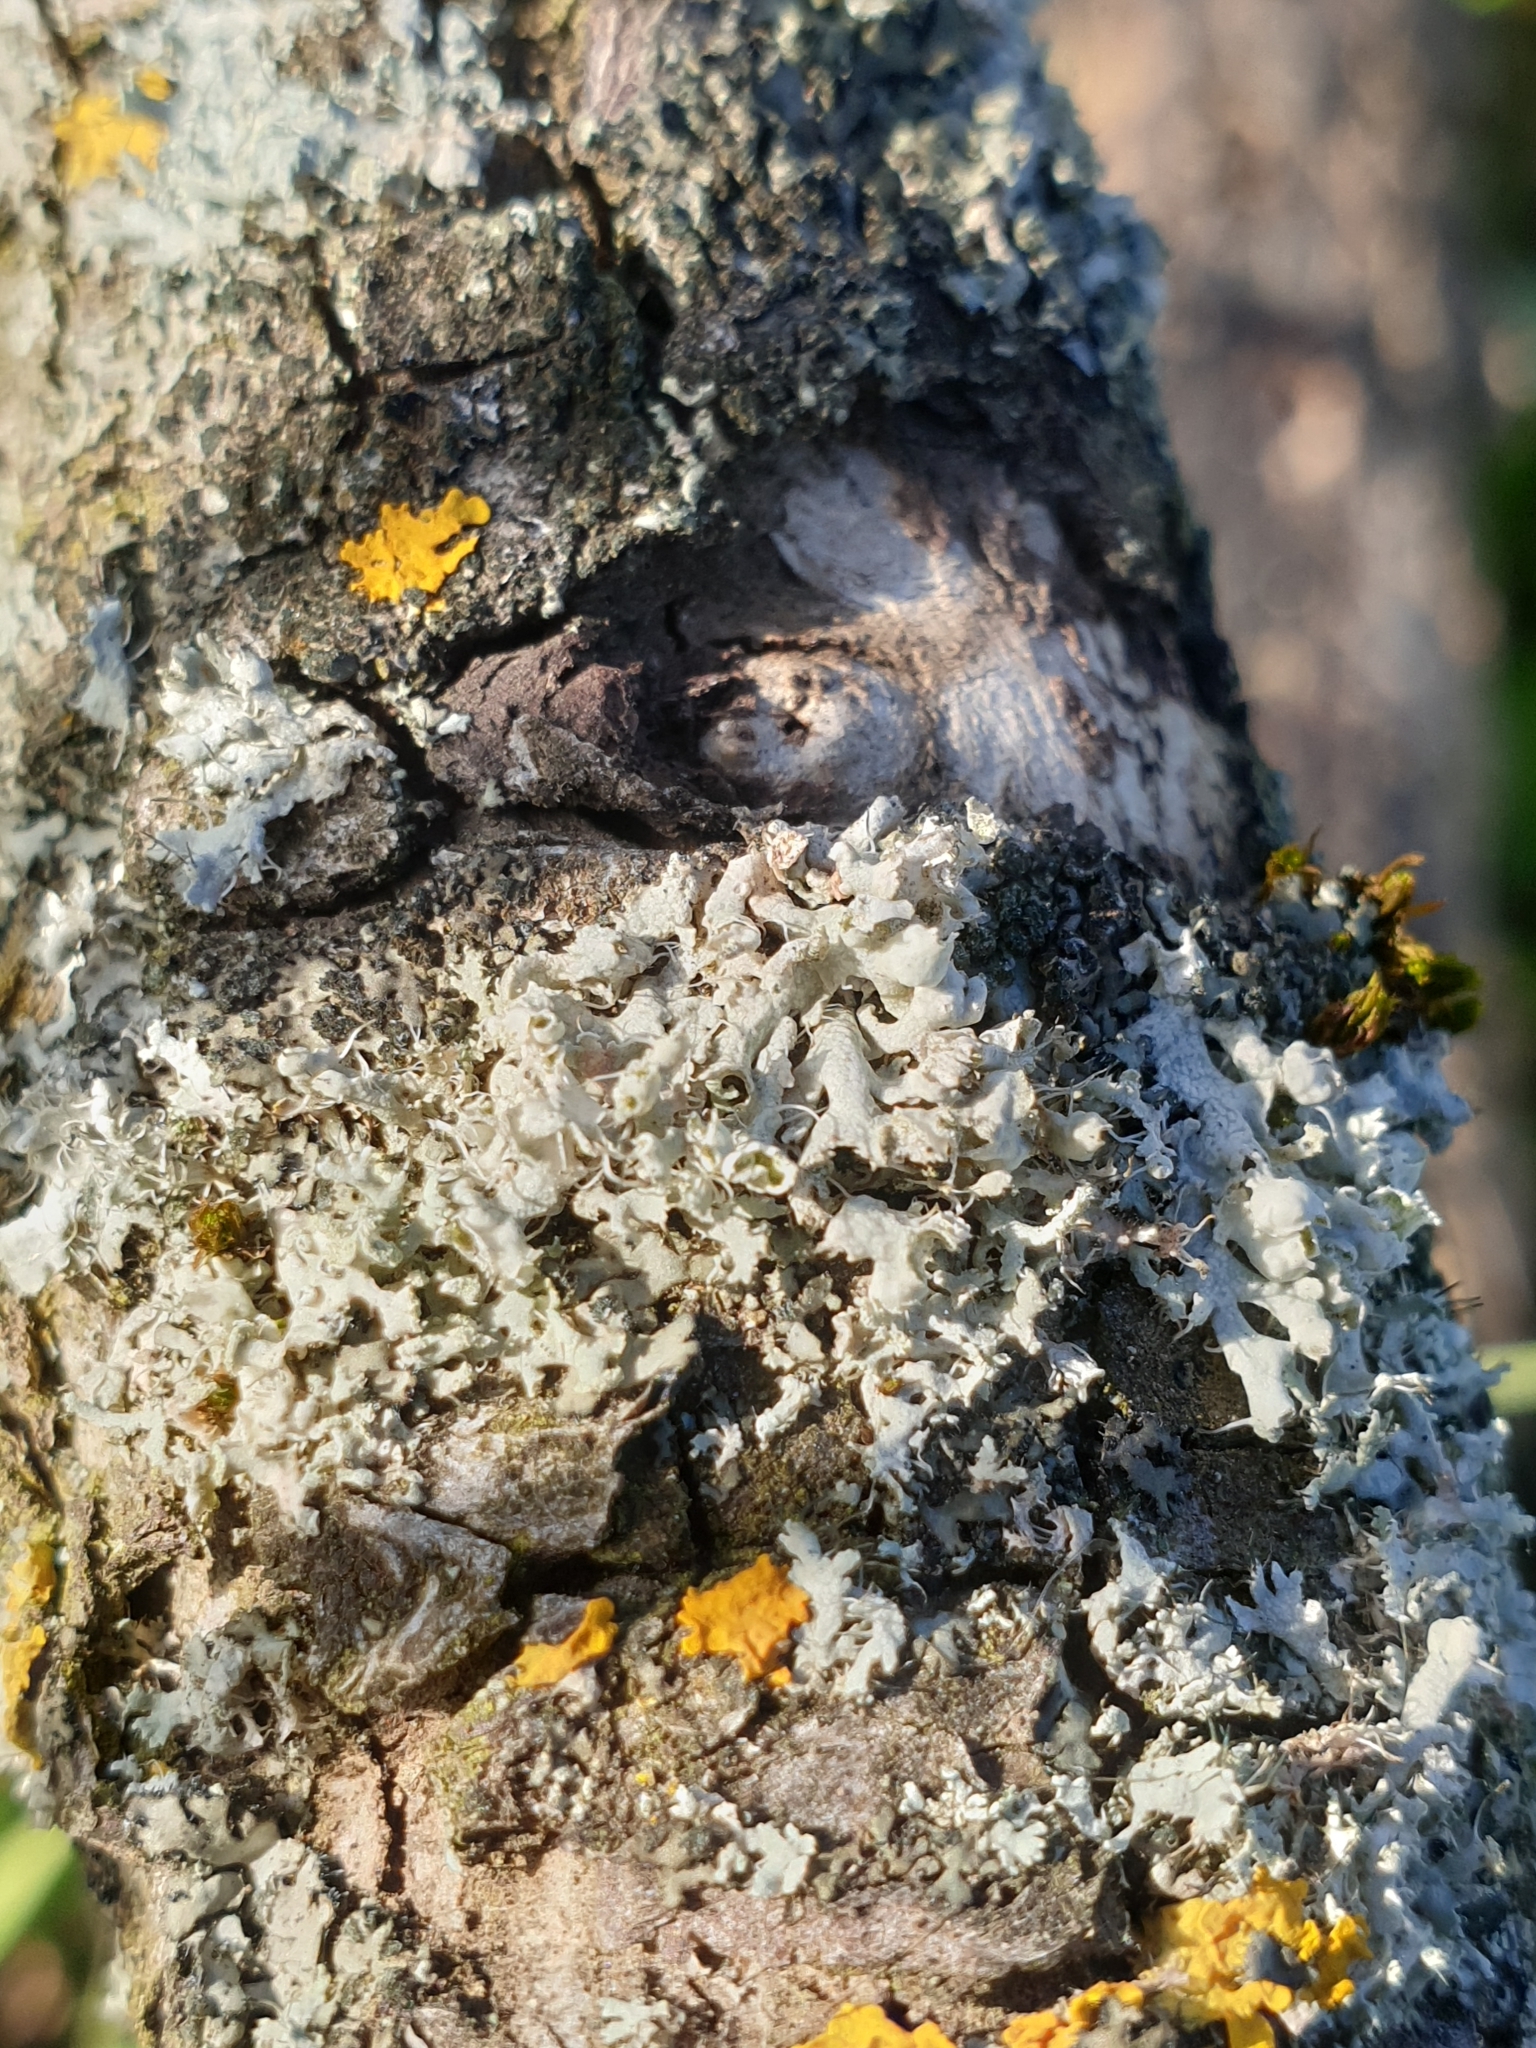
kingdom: Fungi
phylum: Ascomycota
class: Lecanoromycetes
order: Caliciales
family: Physciaceae
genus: Physcia
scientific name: Physcia adscendens
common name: Hooded rosette lichen
